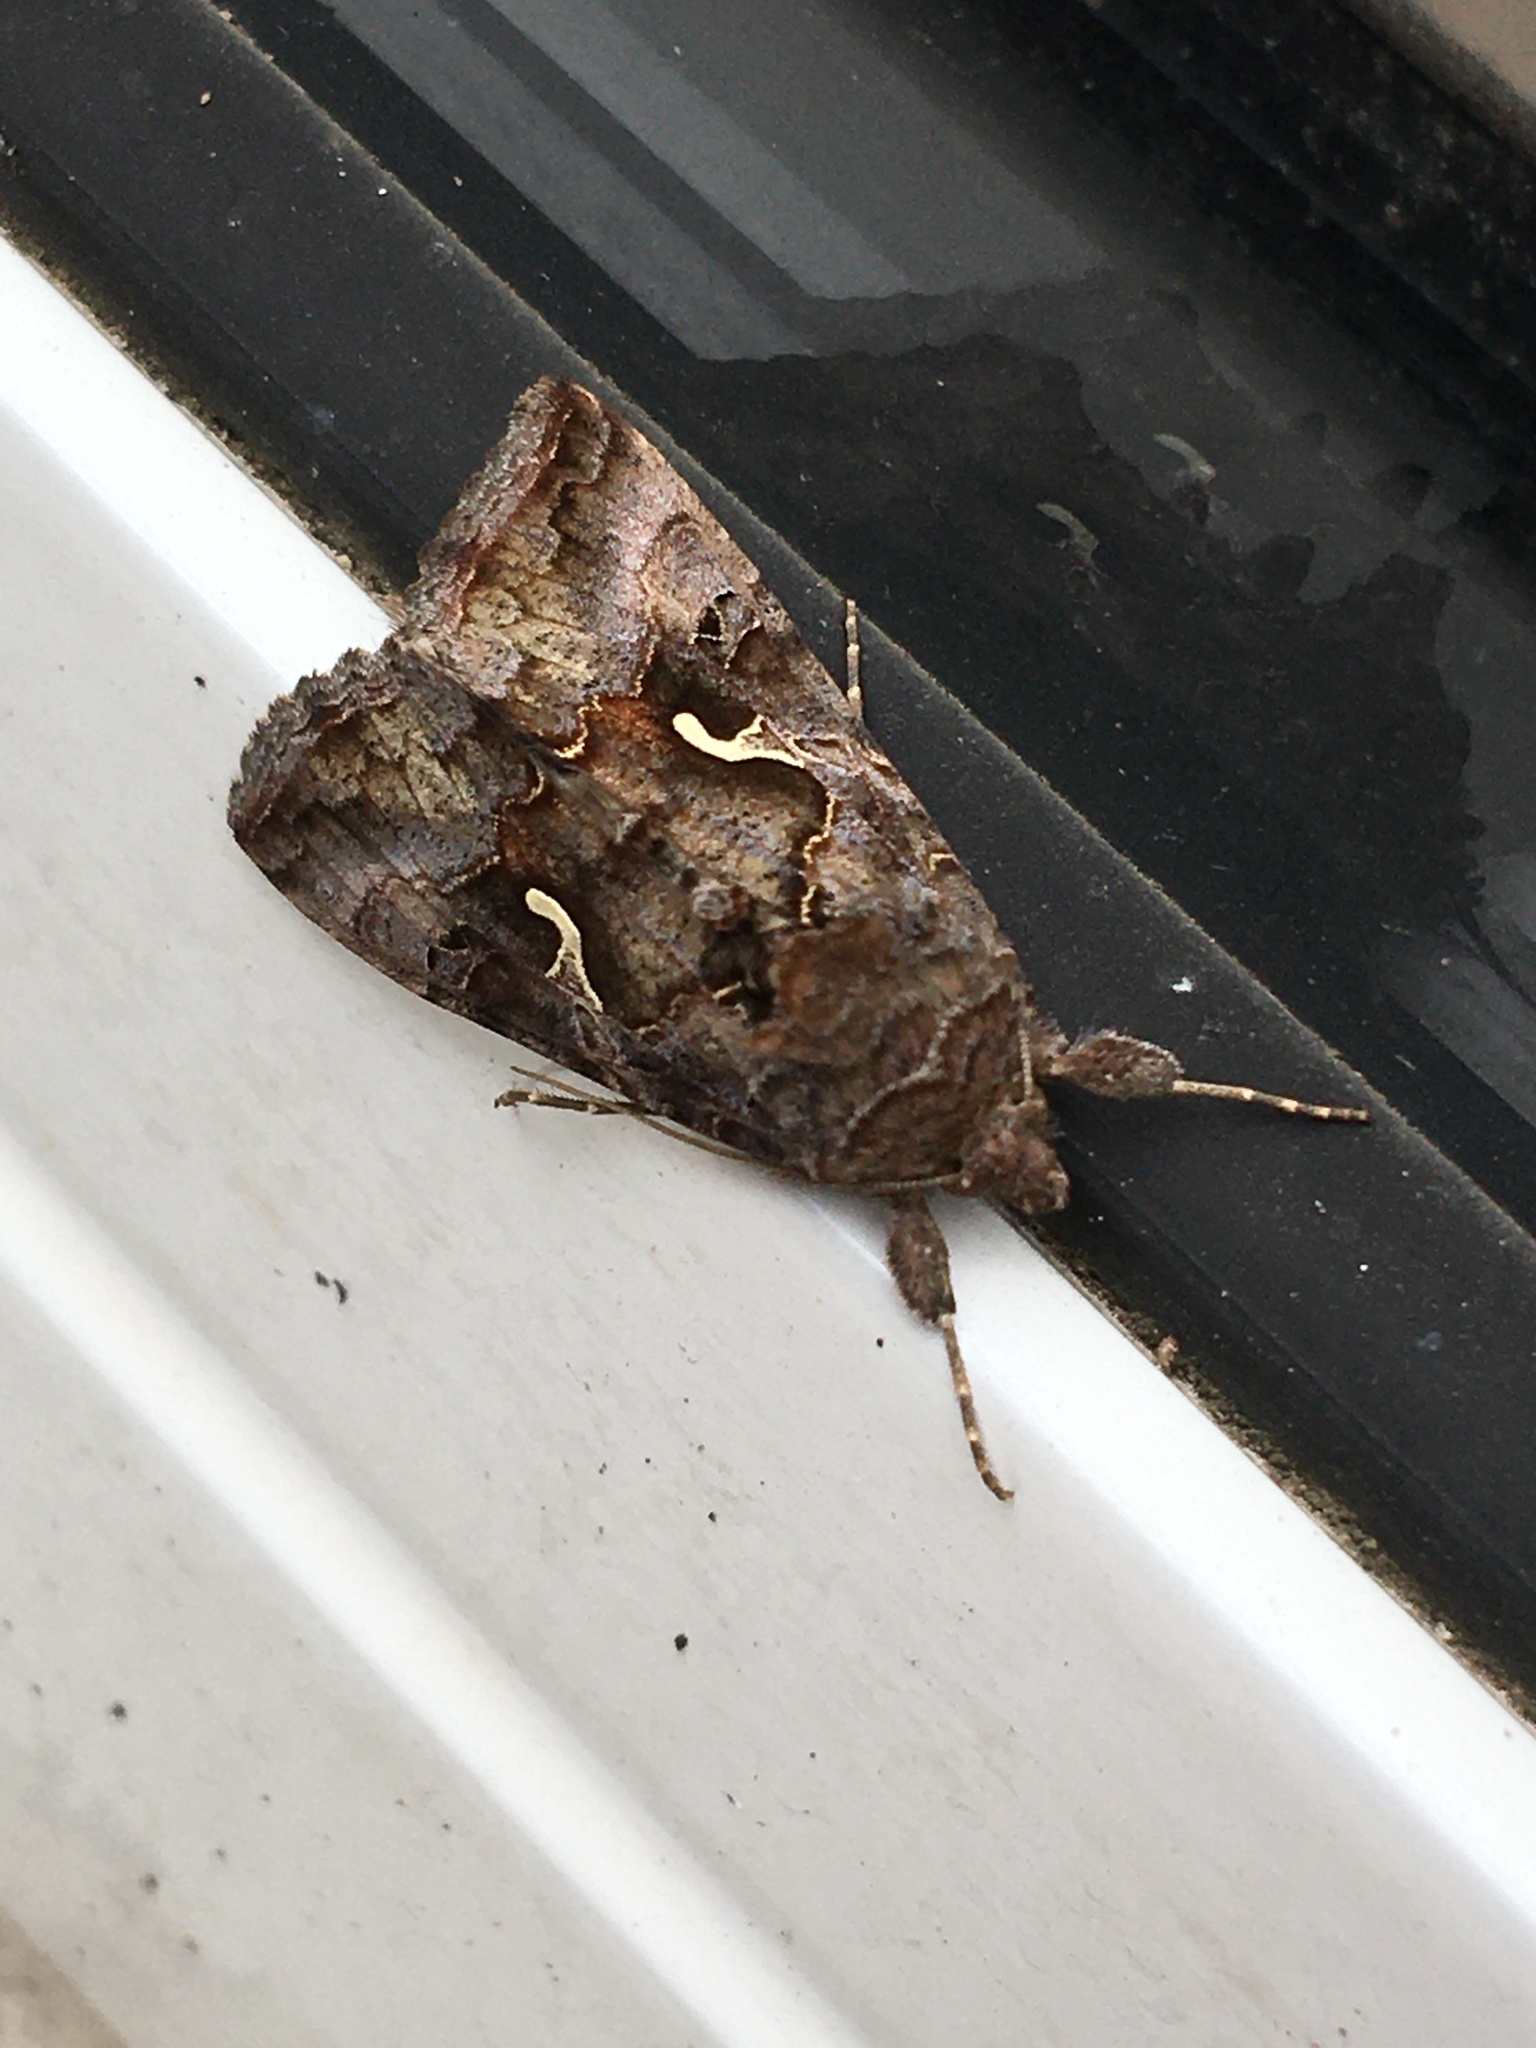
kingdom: Animalia
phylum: Arthropoda
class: Insecta
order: Lepidoptera
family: Noctuidae
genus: Autographa
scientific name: Autographa gamma
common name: Silver y
